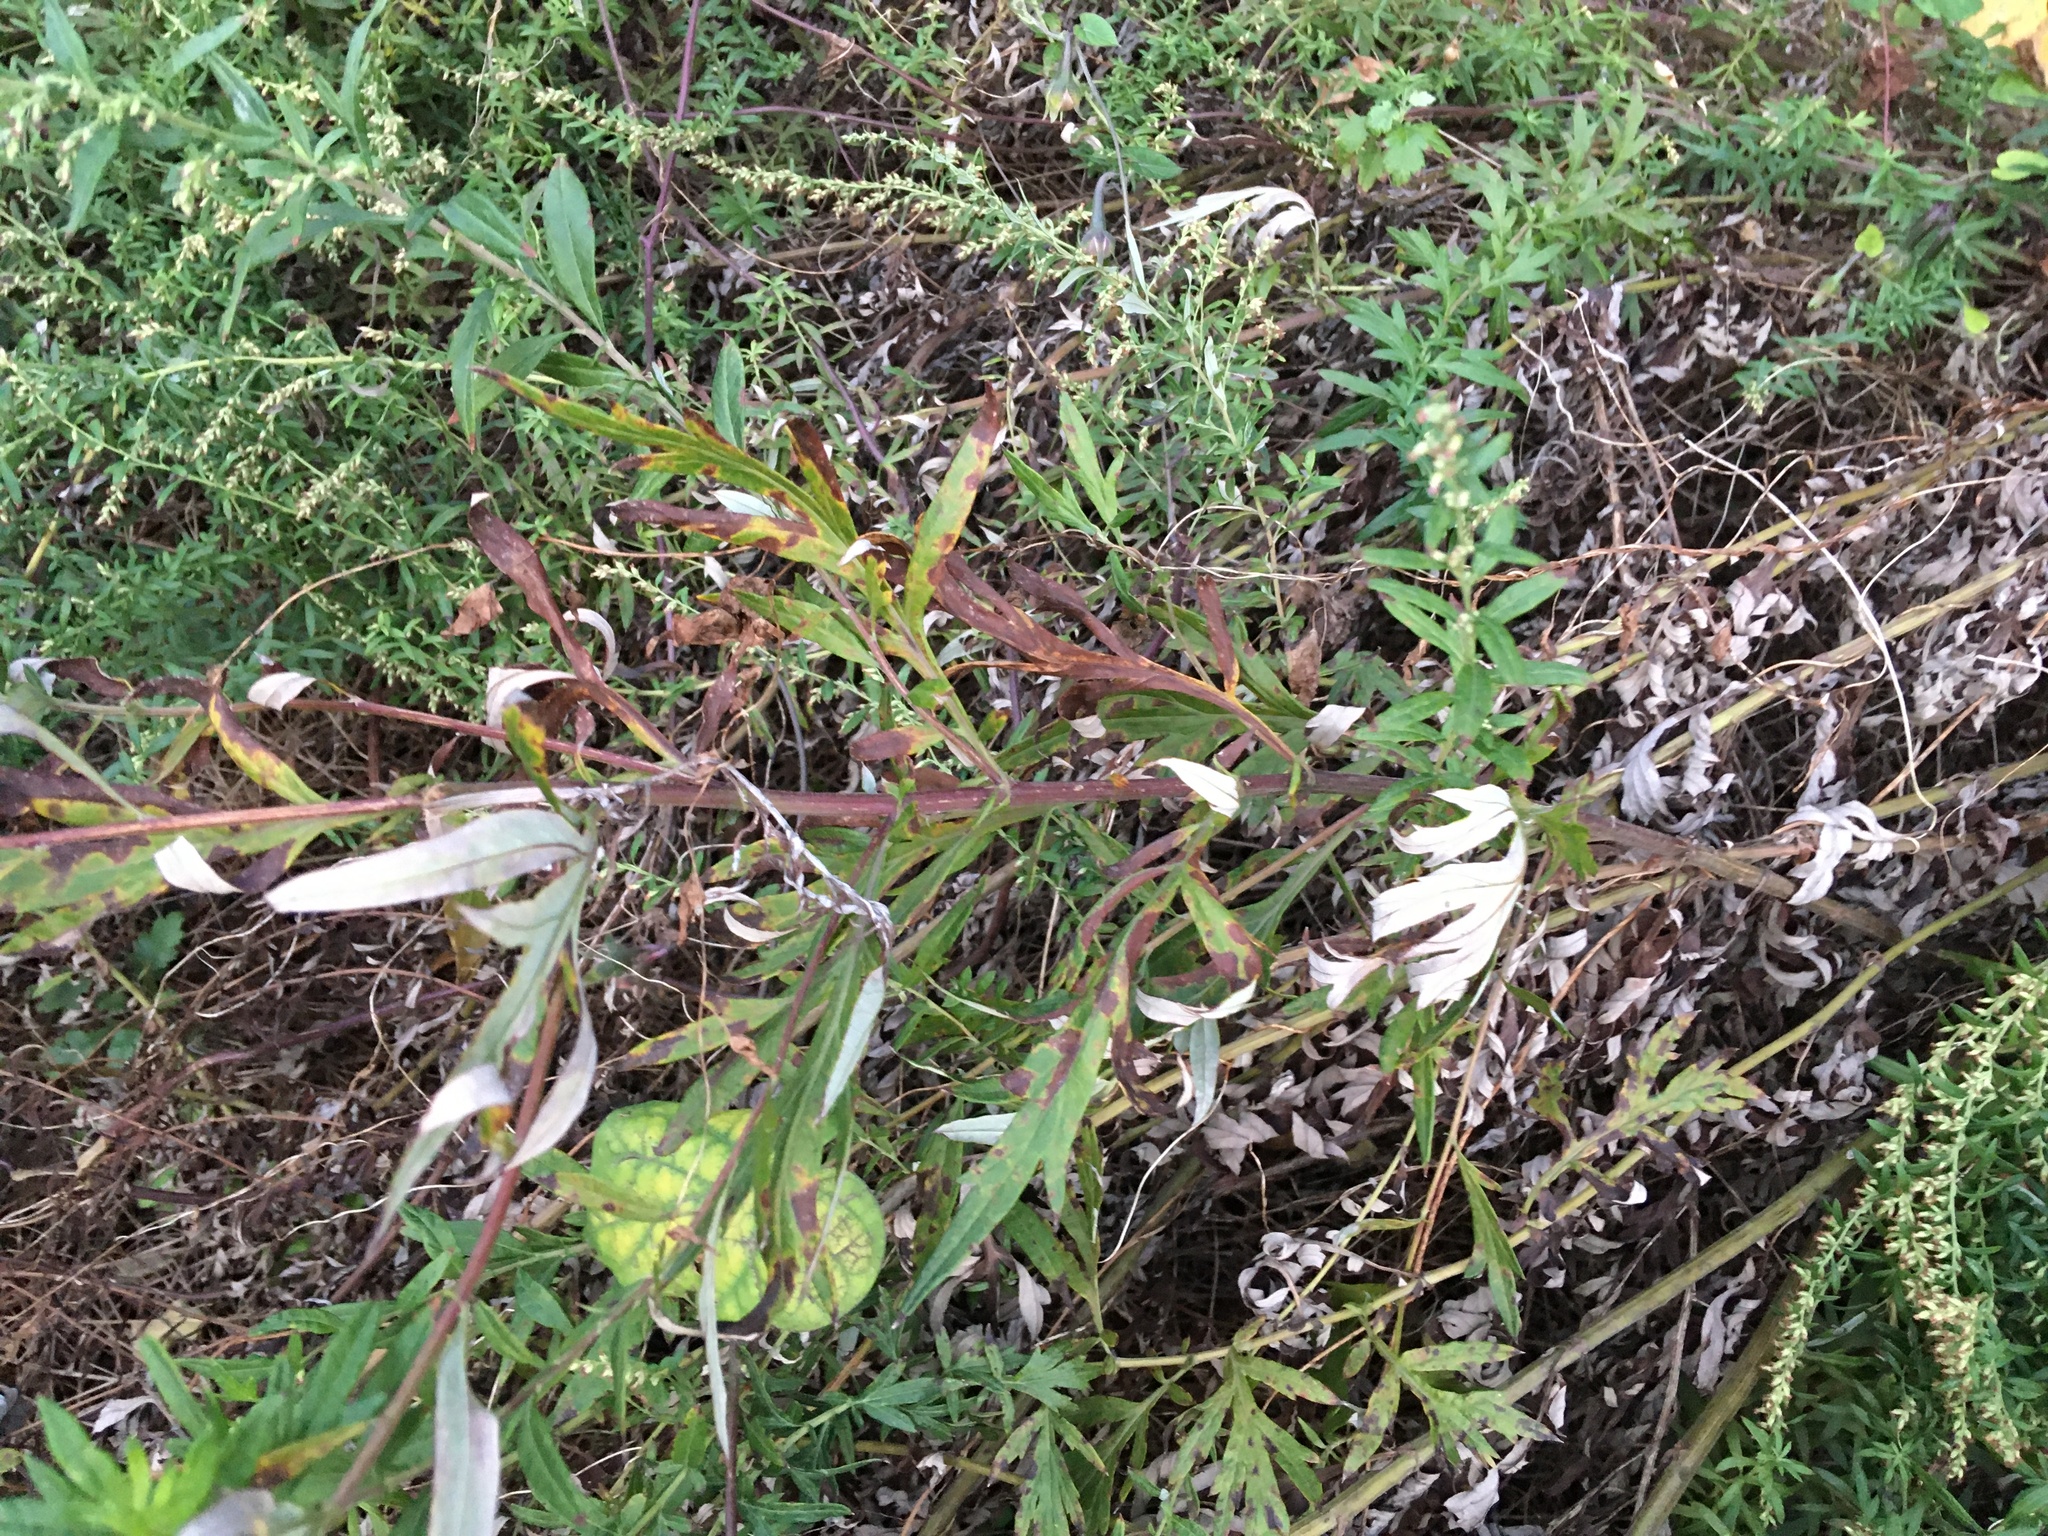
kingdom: Plantae
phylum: Tracheophyta
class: Magnoliopsida
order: Asterales
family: Asteraceae
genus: Artemisia
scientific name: Artemisia vulgaris
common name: Mugwort
